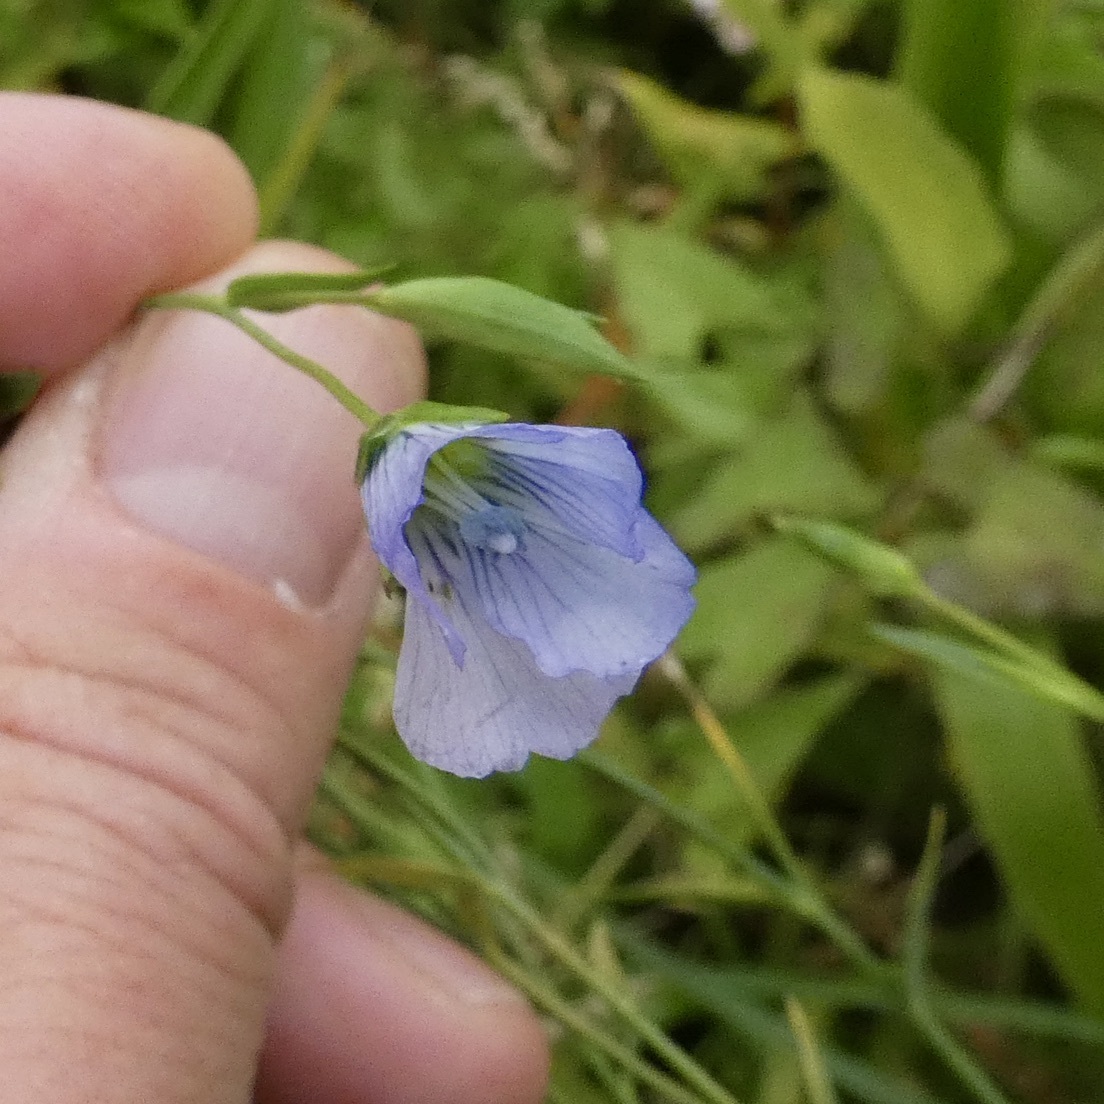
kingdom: Plantae
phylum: Tracheophyta
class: Magnoliopsida
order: Malpighiales
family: Linaceae
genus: Linum
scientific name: Linum usitatissimum
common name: Flax
